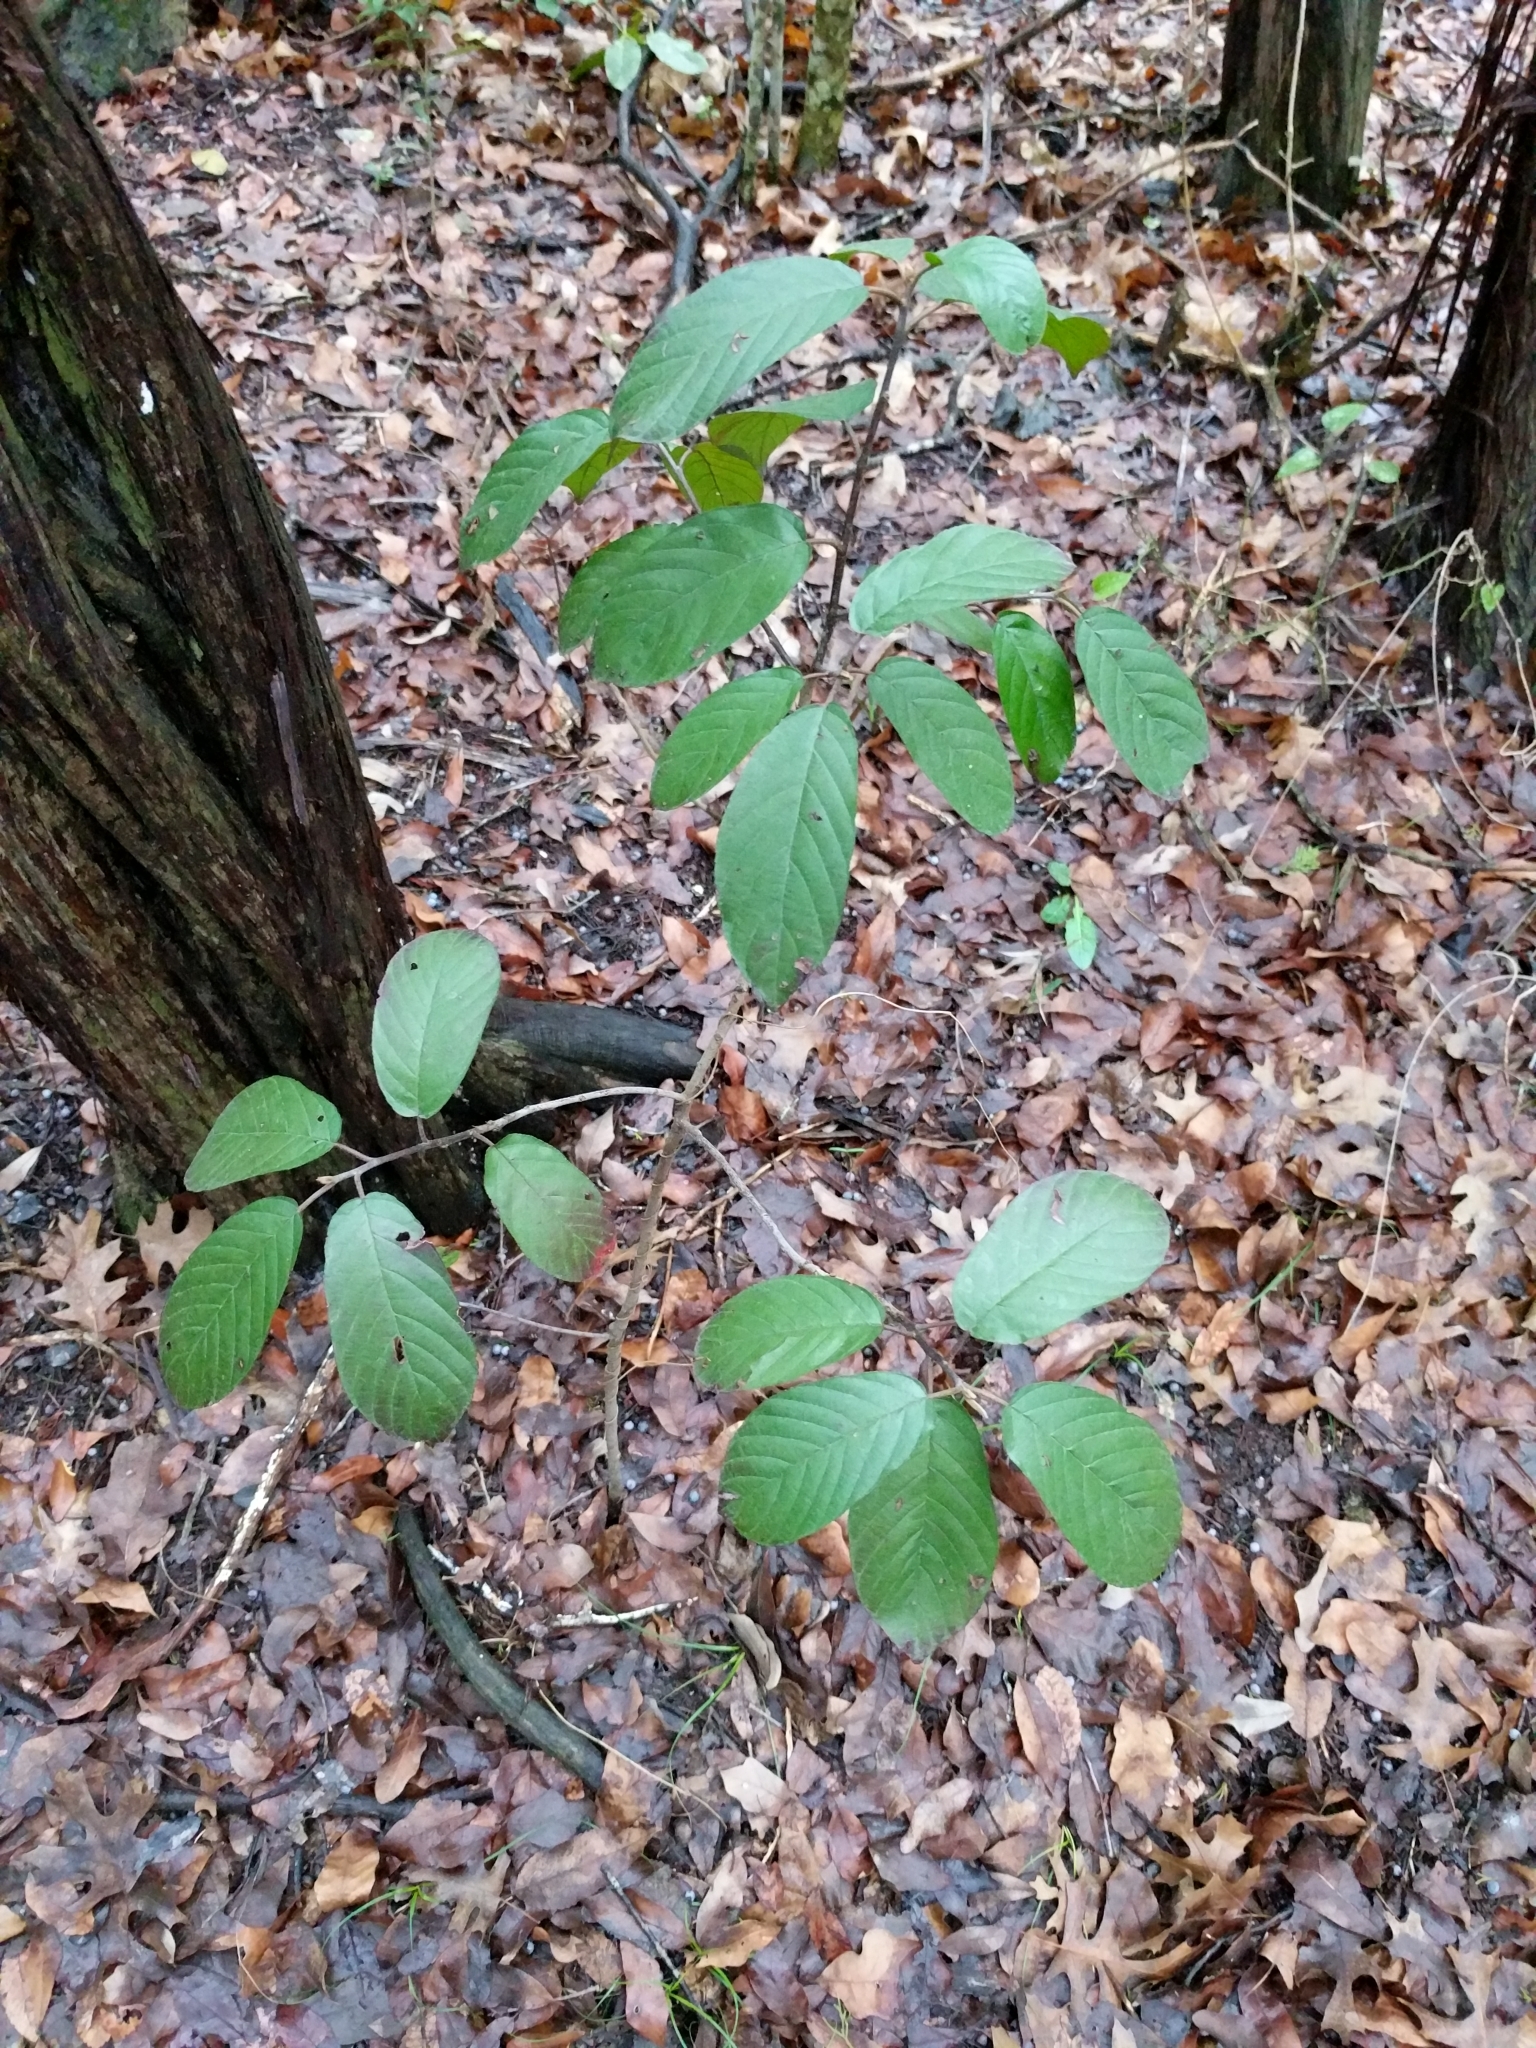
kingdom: Plantae
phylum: Tracheophyta
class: Magnoliopsida
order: Rosales
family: Rhamnaceae
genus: Frangula
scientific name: Frangula caroliniana
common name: Carolina buckthorn
